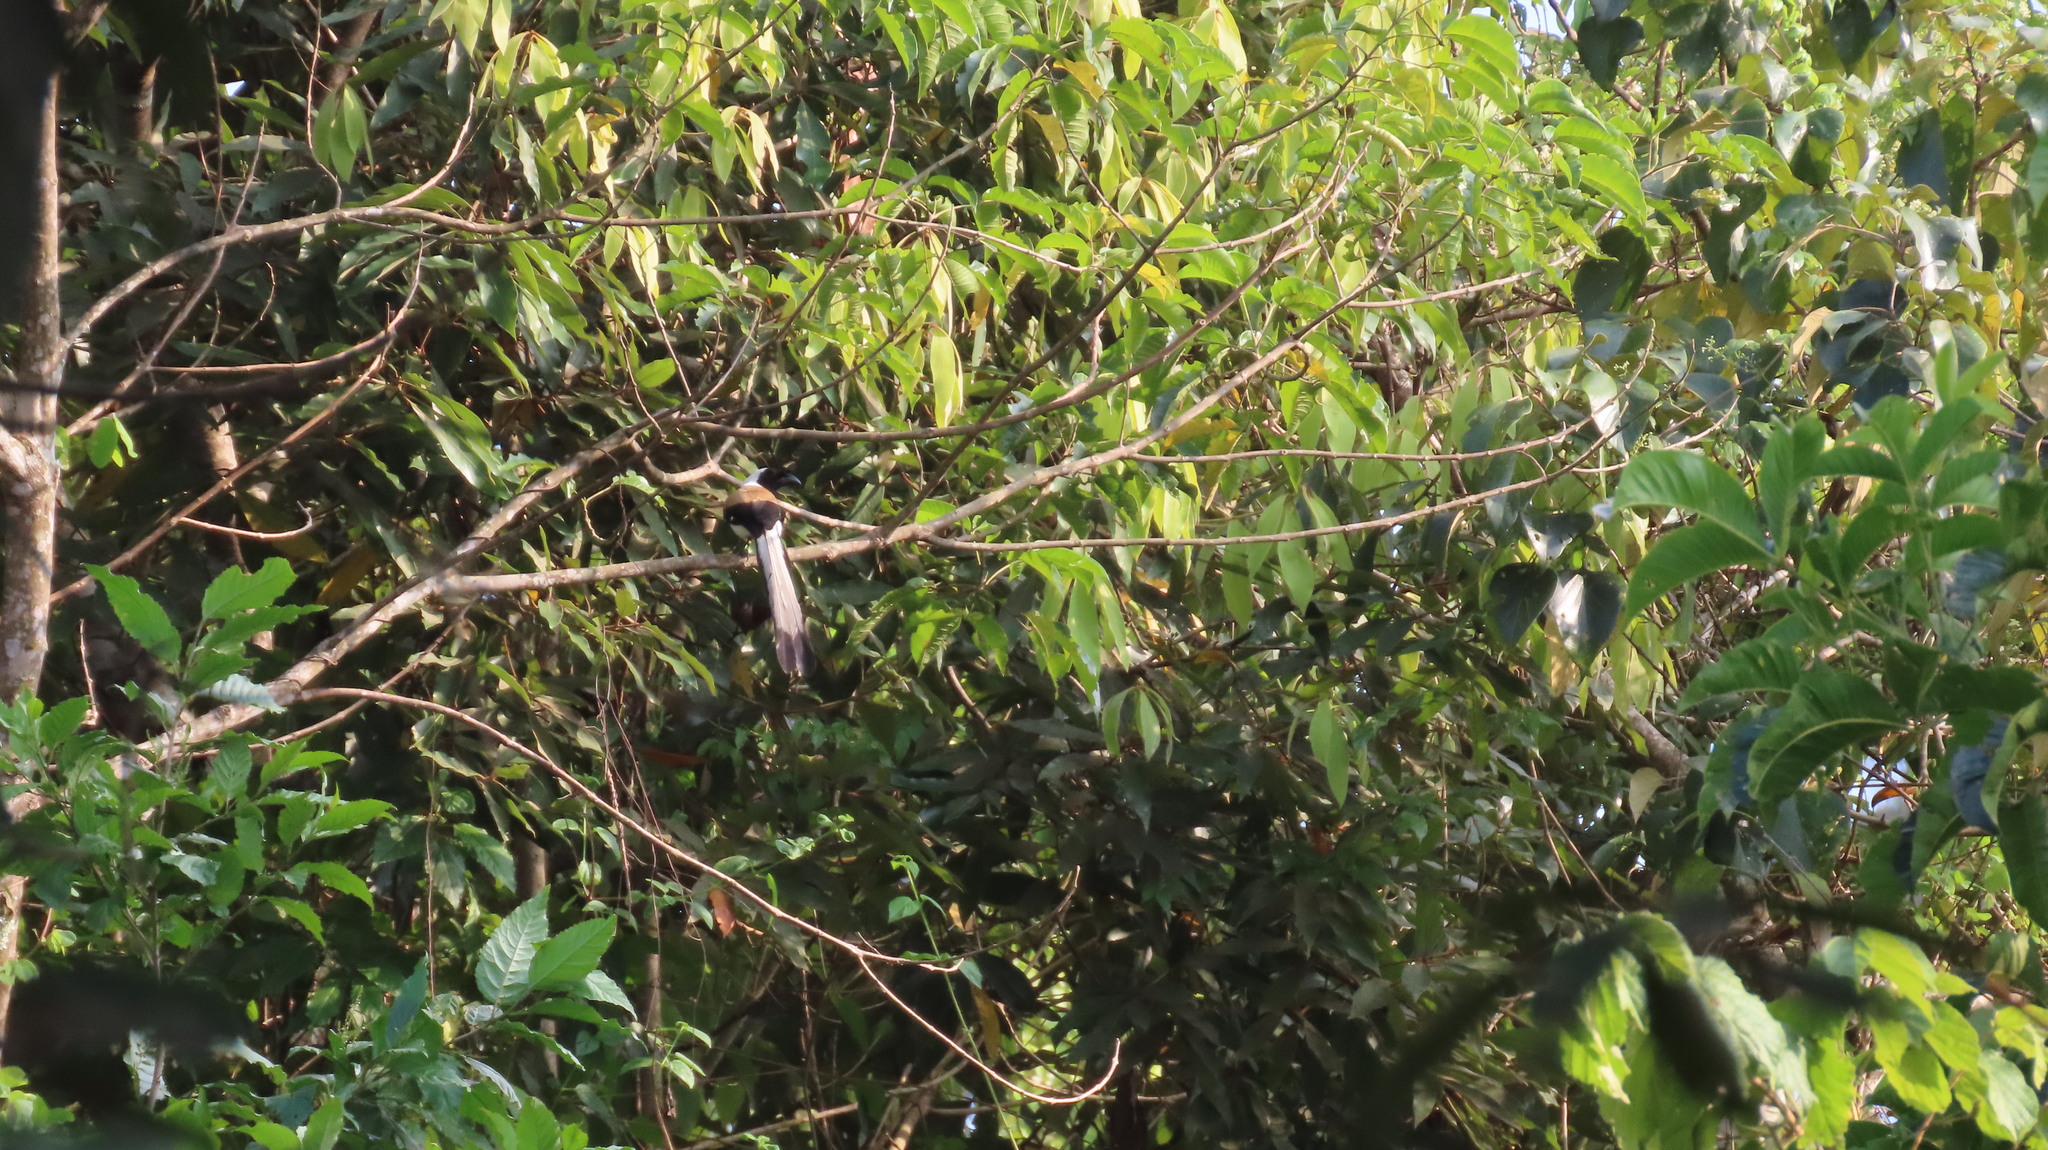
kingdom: Animalia
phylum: Chordata
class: Aves
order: Passeriformes
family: Corvidae
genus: Dendrocitta
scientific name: Dendrocitta leucogastra
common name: White-bellied treepie
